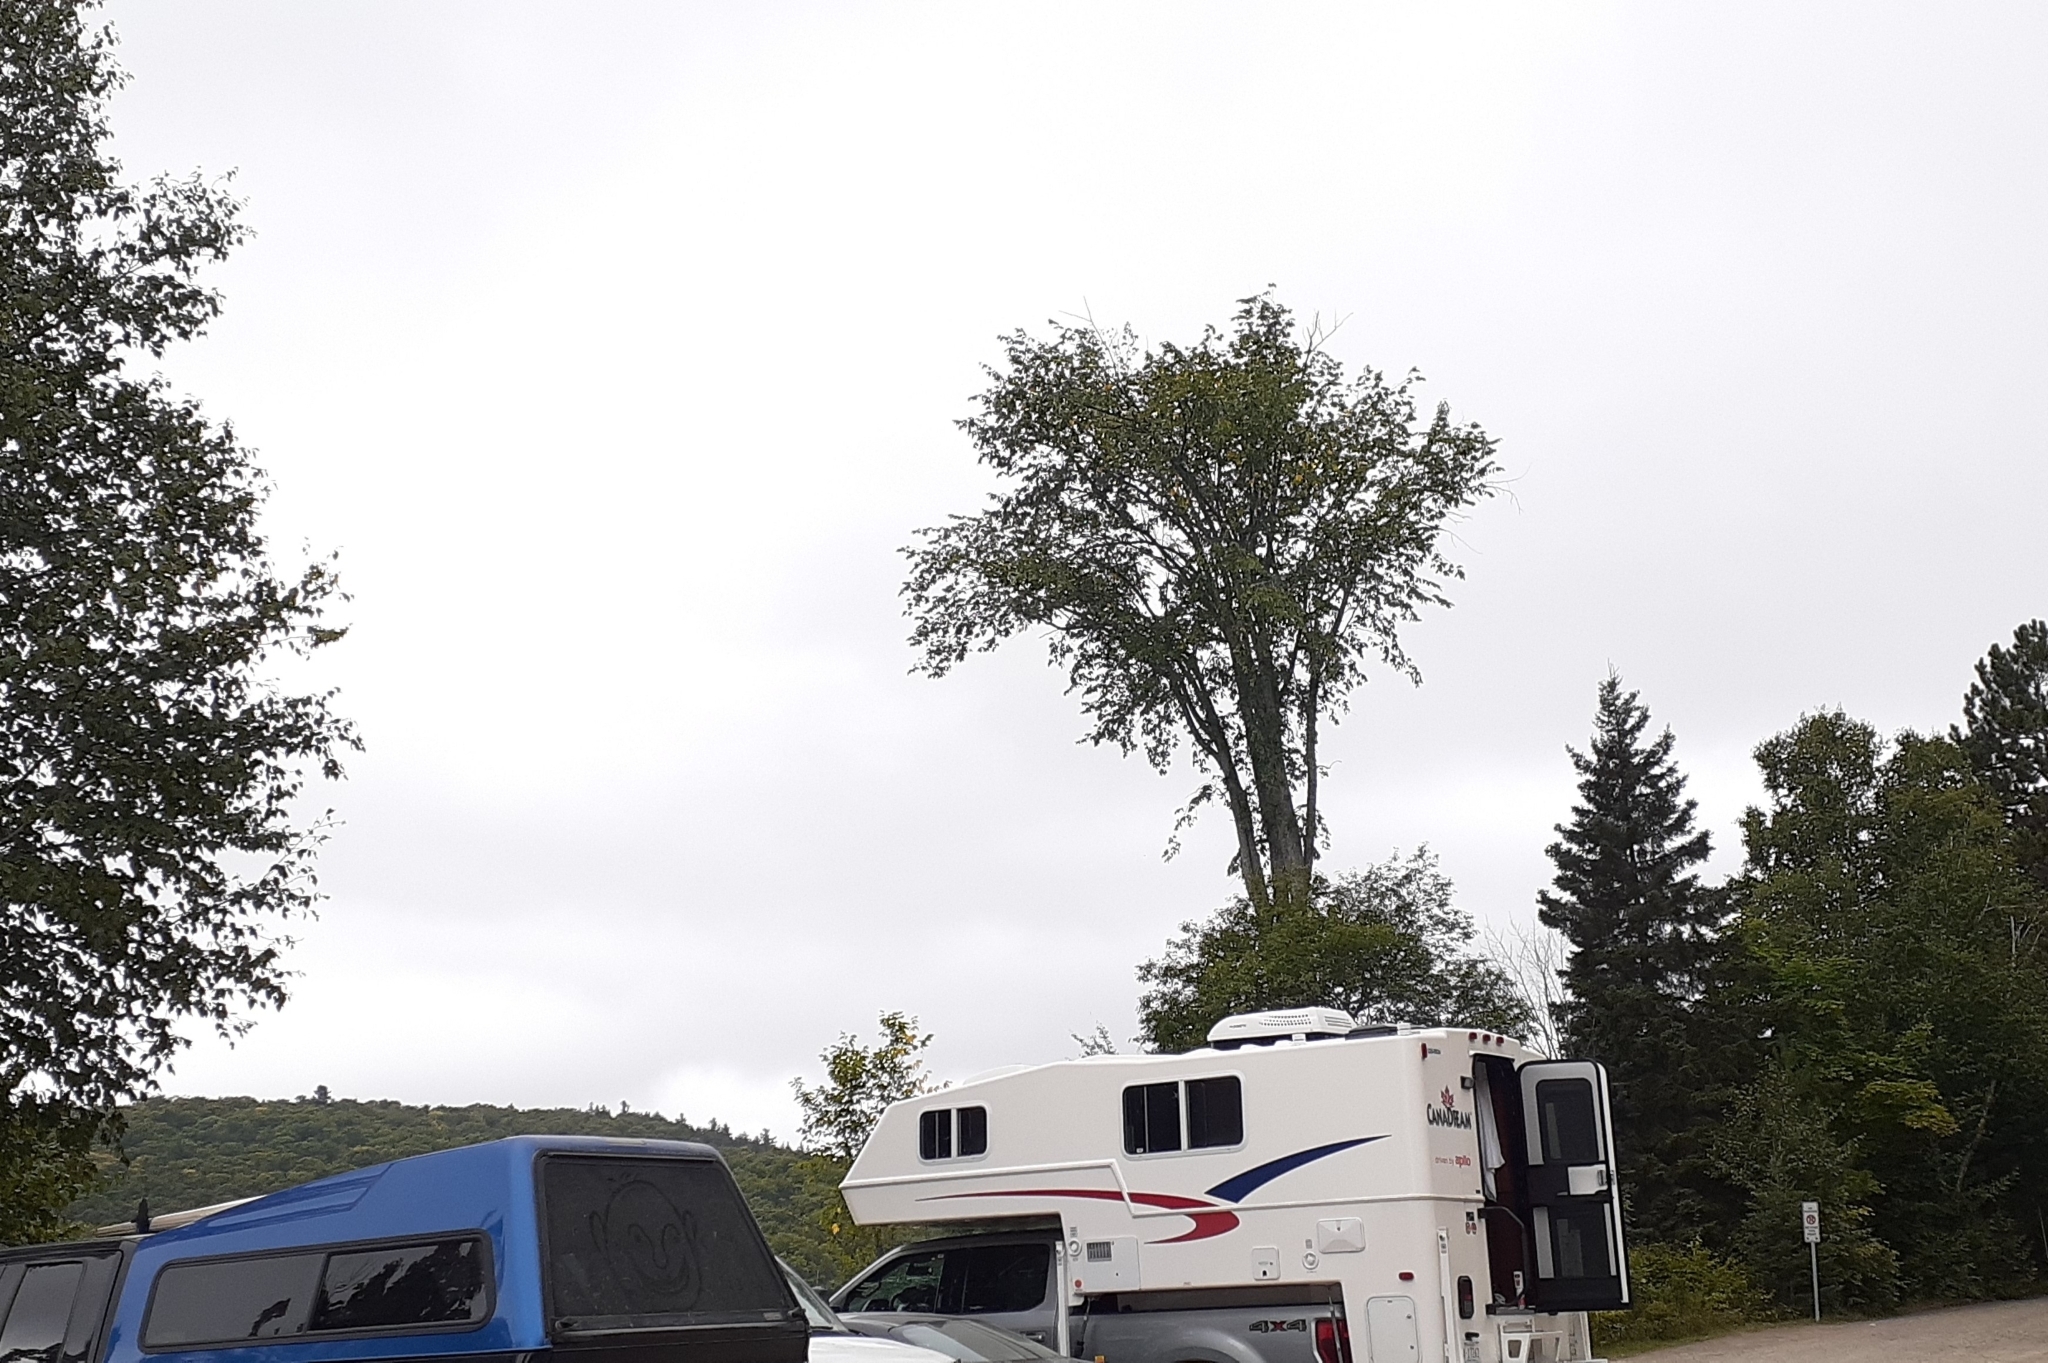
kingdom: Plantae
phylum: Tracheophyta
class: Magnoliopsida
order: Rosales
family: Ulmaceae
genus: Ulmus
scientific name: Ulmus americana
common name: American elm
